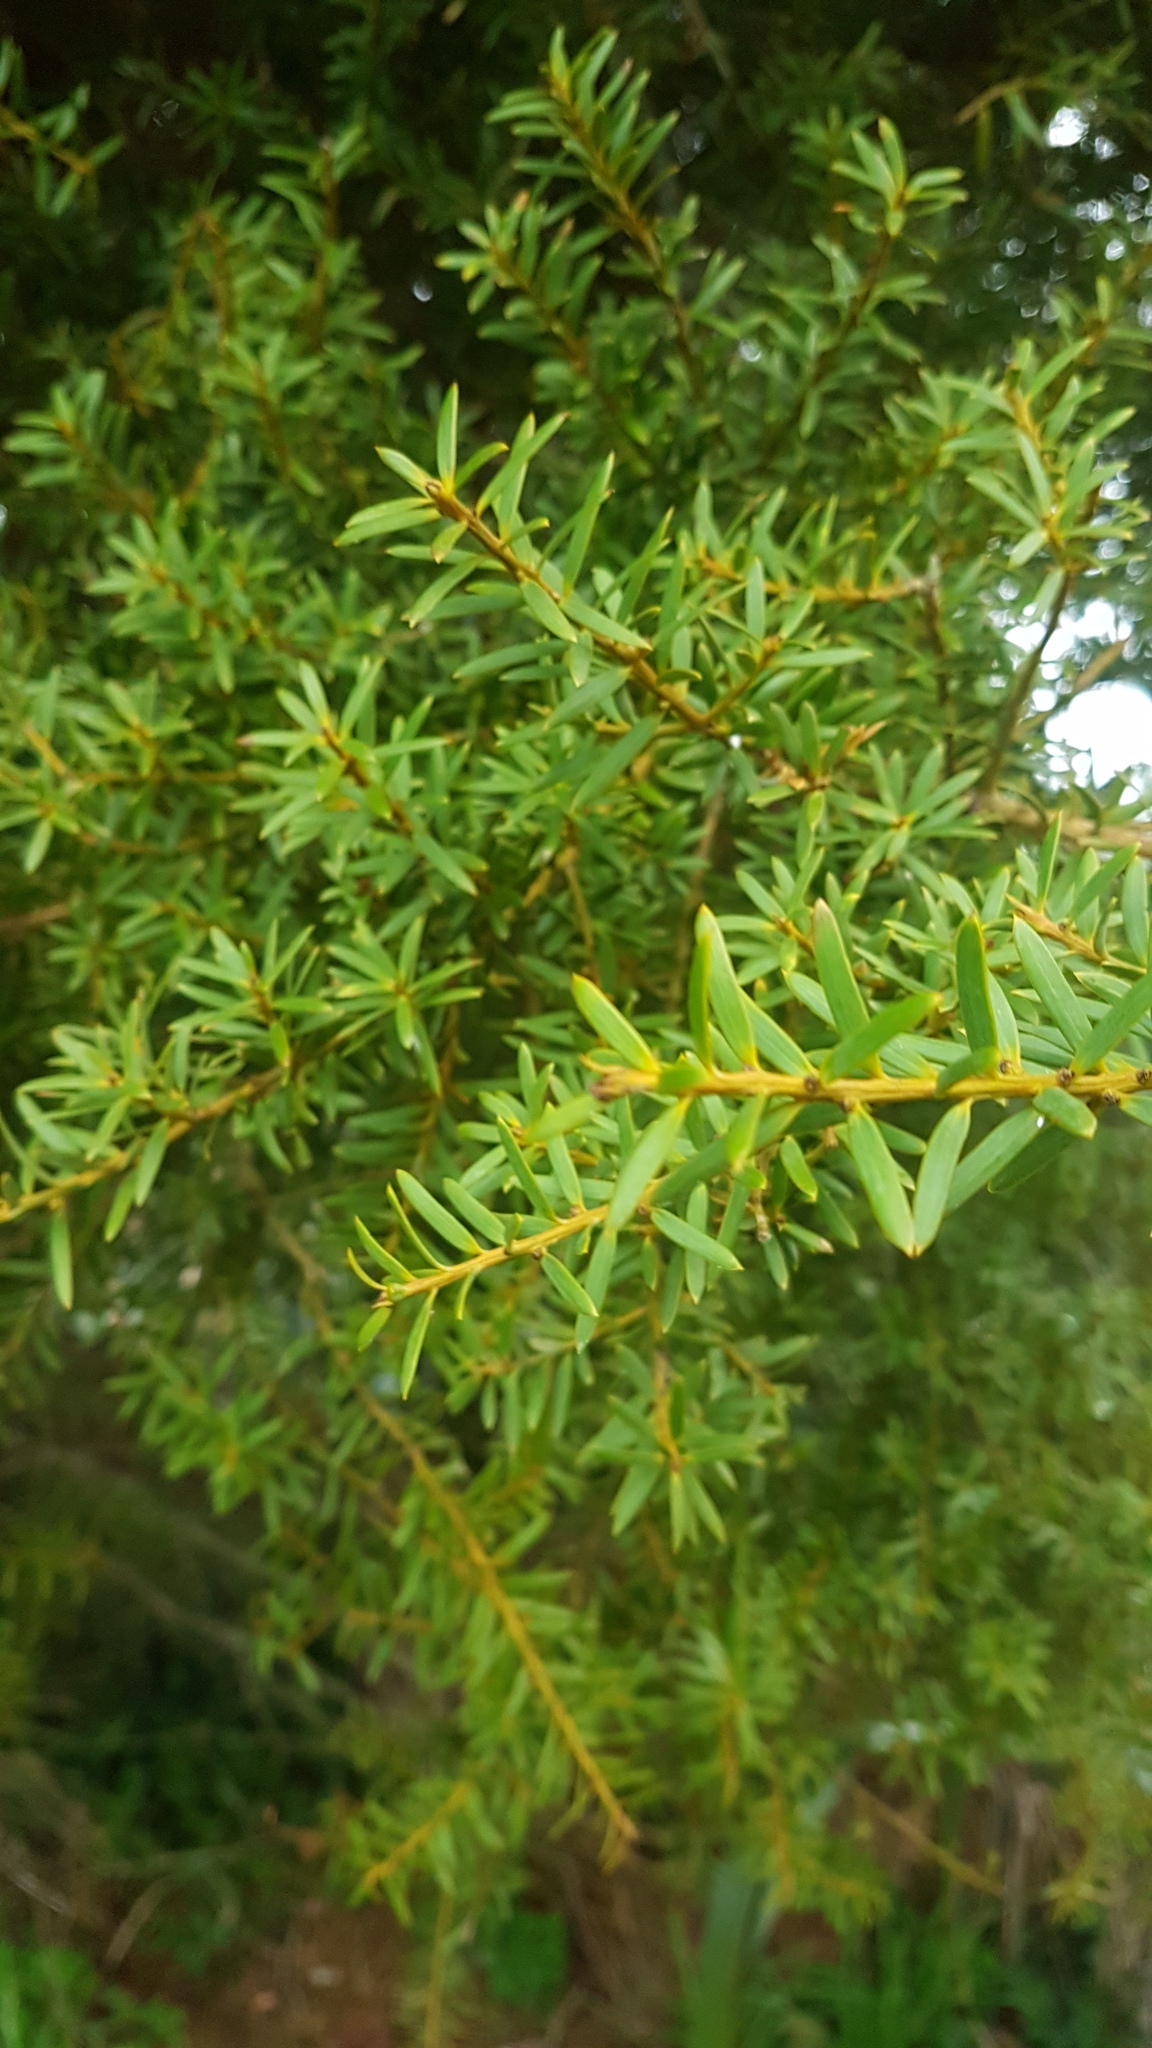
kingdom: Plantae
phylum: Tracheophyta
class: Pinopsida
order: Pinales
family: Podocarpaceae
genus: Podocarpus
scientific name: Podocarpus totara
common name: Totara
